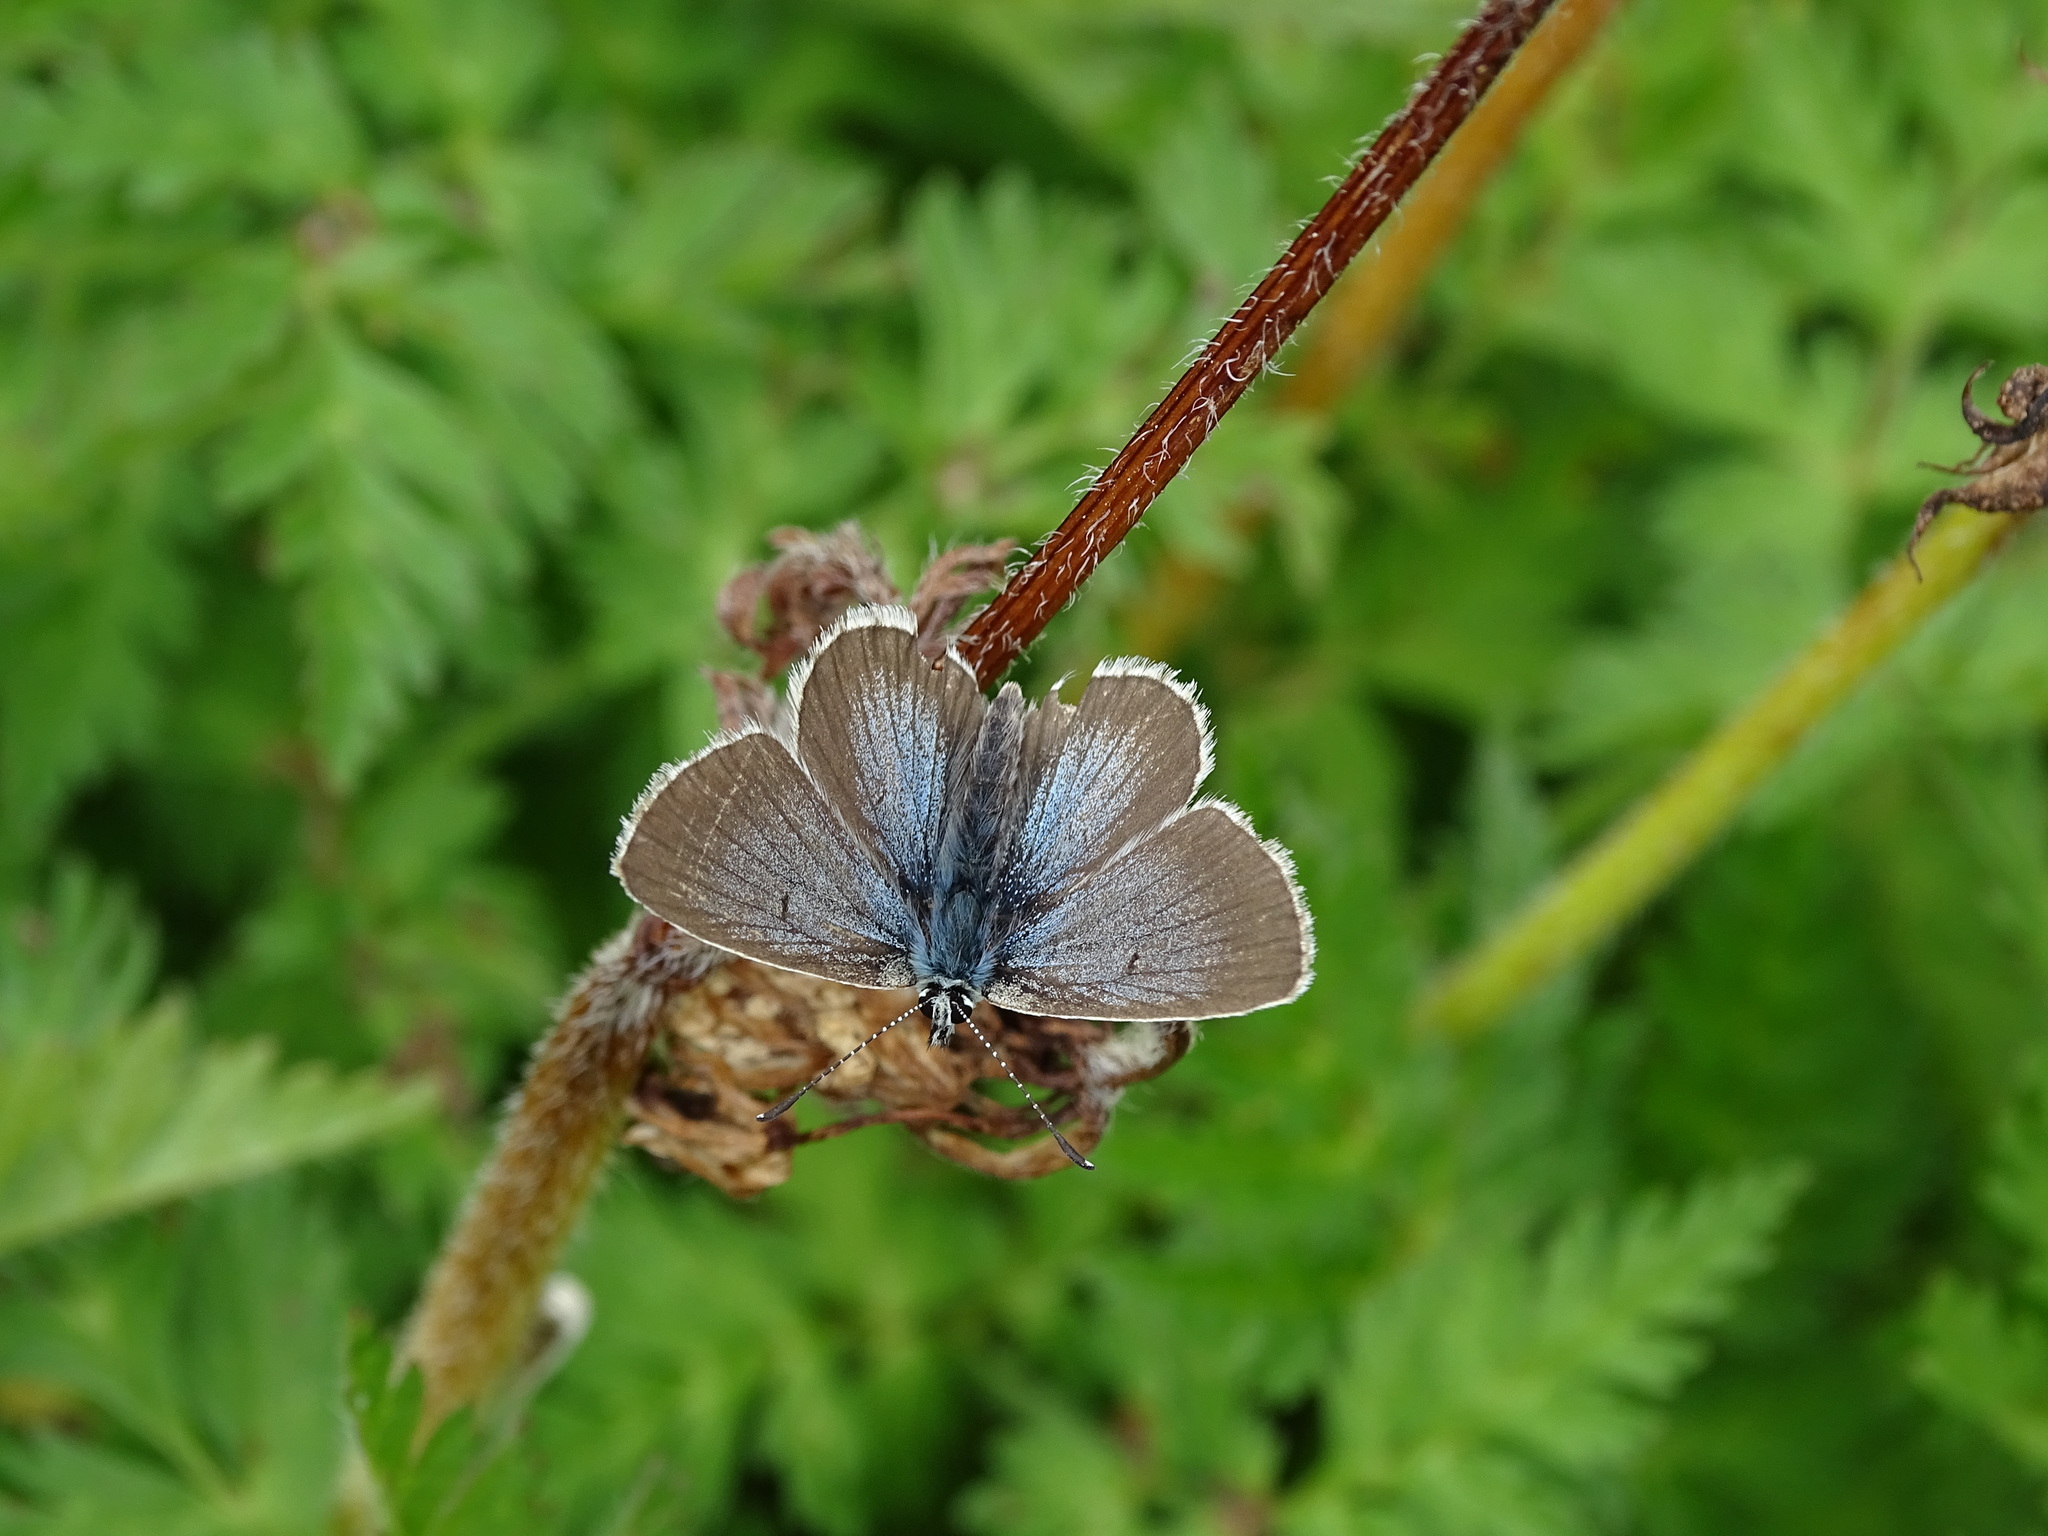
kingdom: Animalia
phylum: Arthropoda
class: Insecta
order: Lepidoptera
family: Lycaenidae
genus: Pseudoaricia
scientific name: Pseudoaricia nicias
